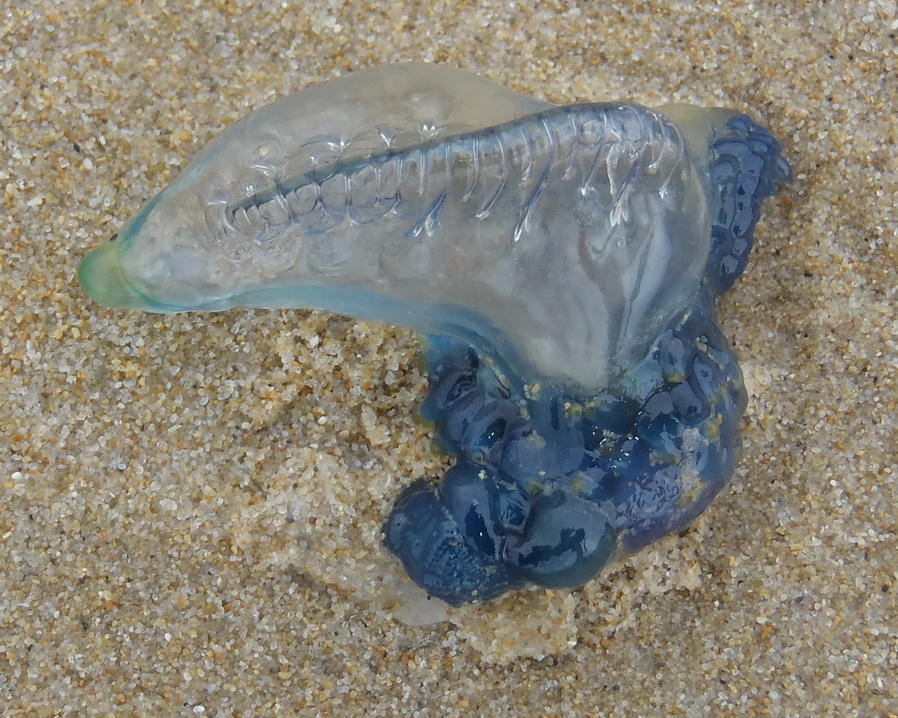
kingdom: Animalia
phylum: Cnidaria
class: Hydrozoa
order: Siphonophorae
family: Physaliidae
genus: Physalia
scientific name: Physalia physalis
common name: Portuguese man-of-war
